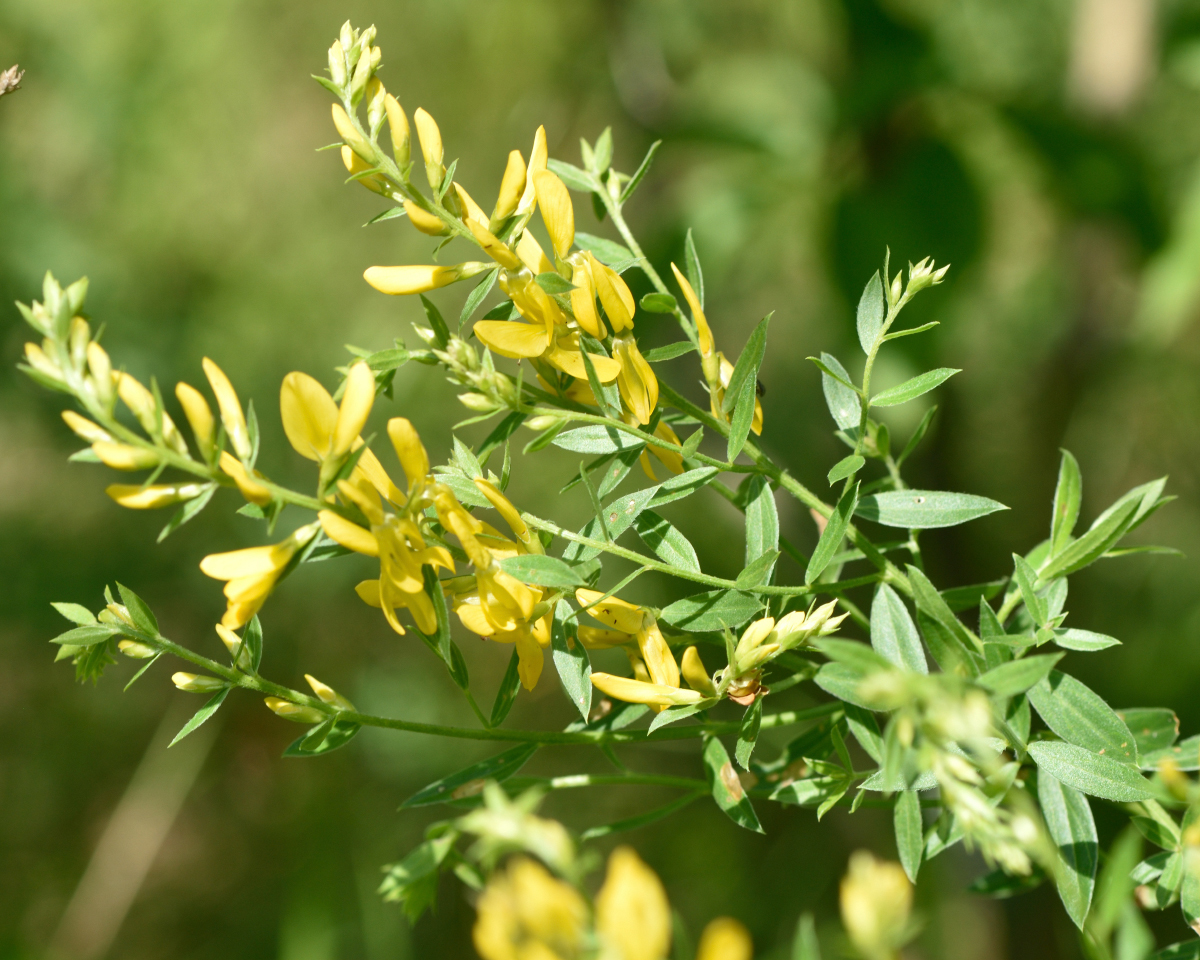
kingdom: Plantae
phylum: Tracheophyta
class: Magnoliopsida
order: Fabales
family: Fabaceae
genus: Genista
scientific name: Genista tinctoria
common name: Dyer's greenweed
